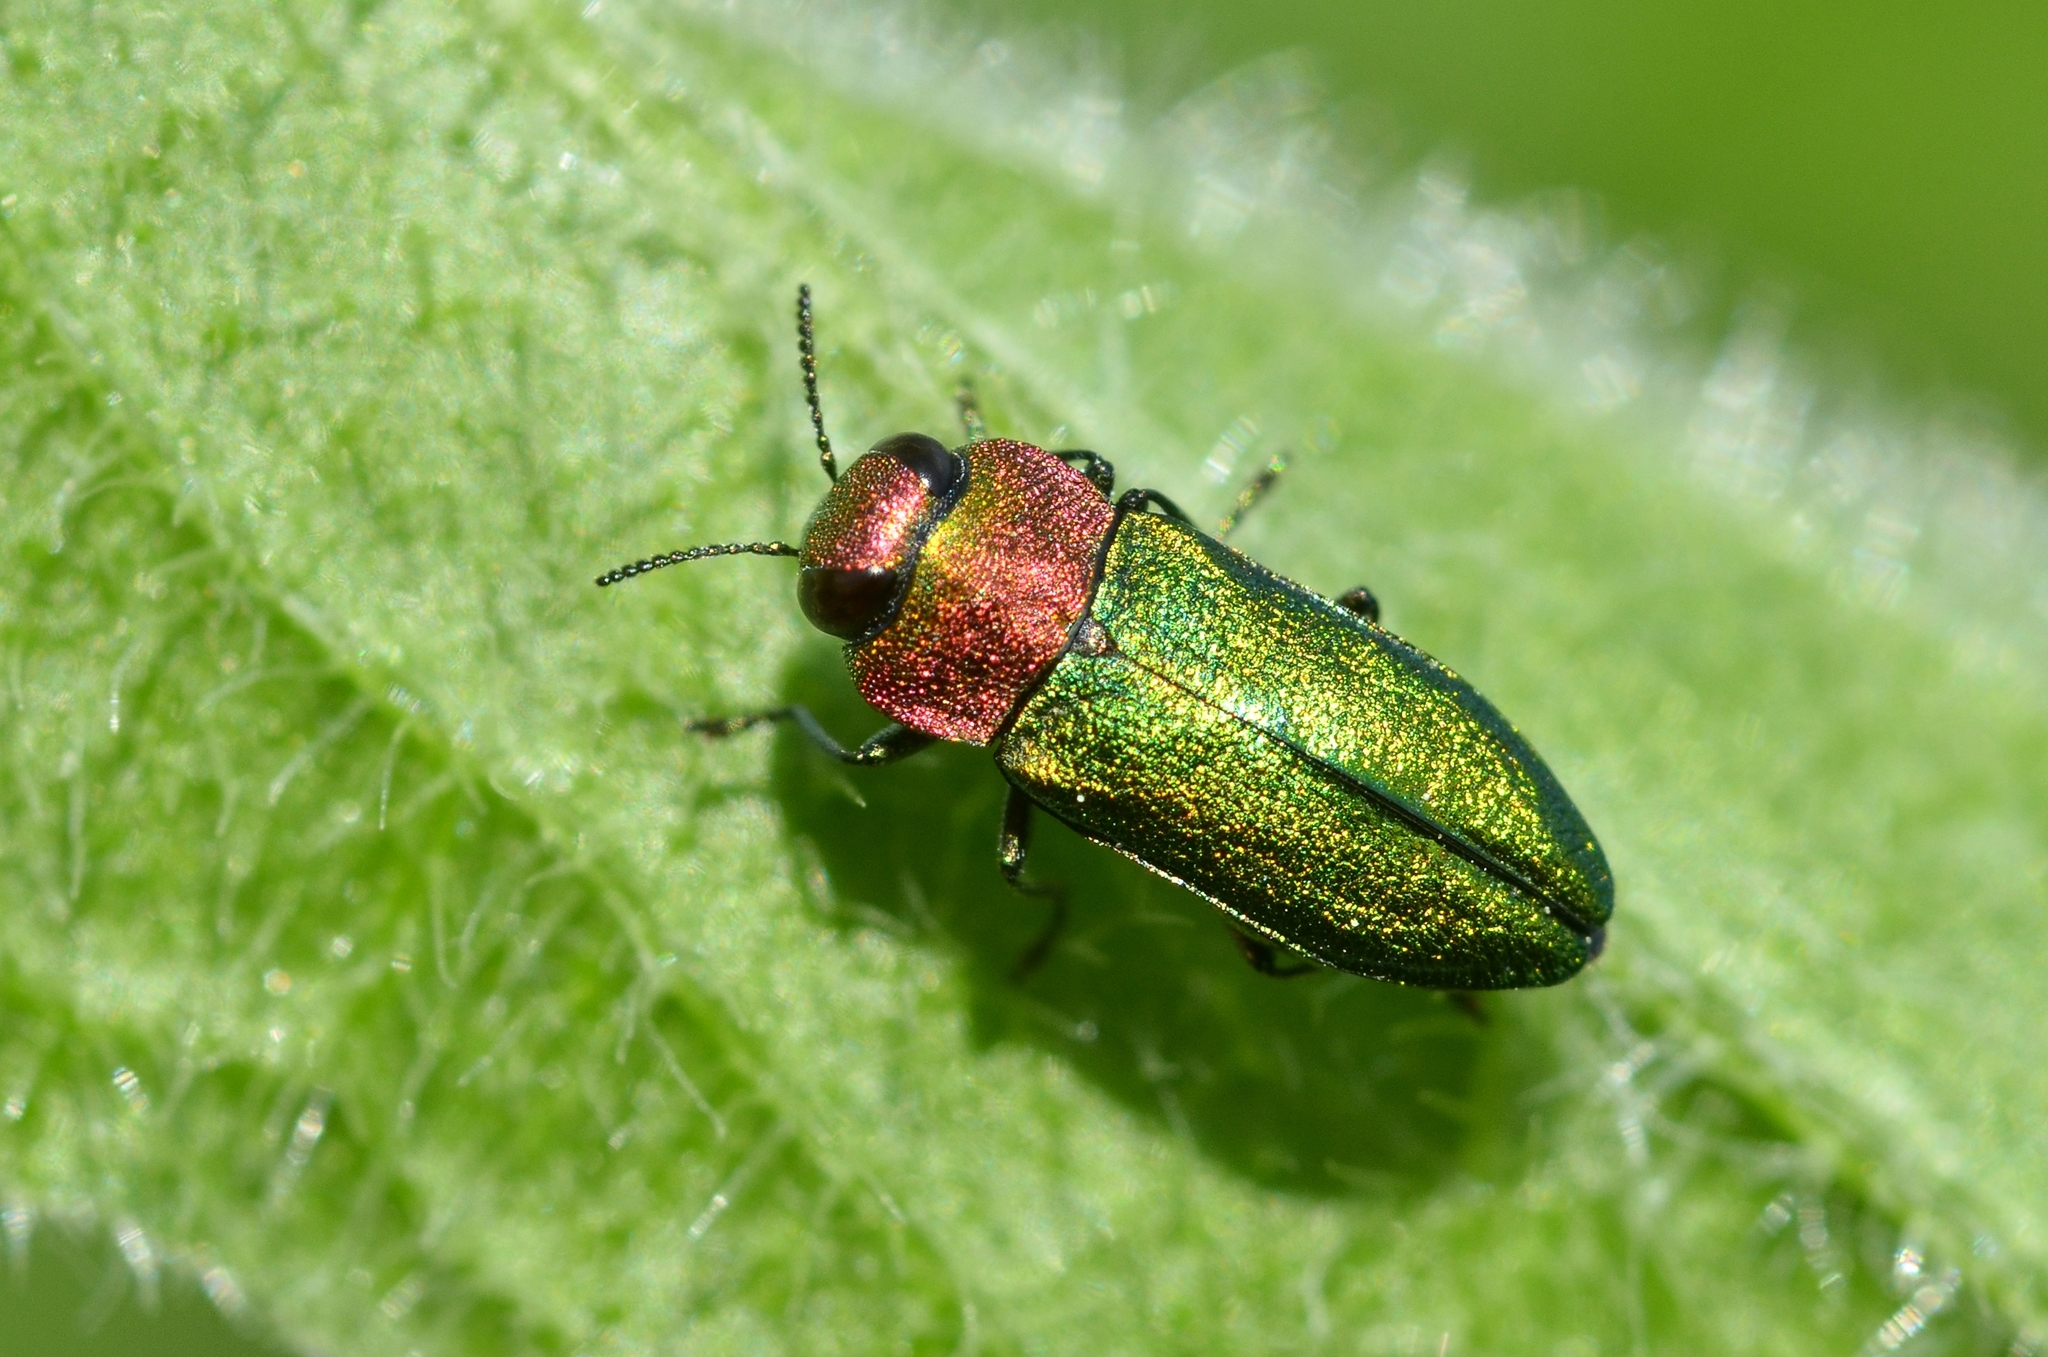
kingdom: Animalia
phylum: Arthropoda
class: Insecta
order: Coleoptera
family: Buprestidae
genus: Anthaxia
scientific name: Anthaxia nitidula
